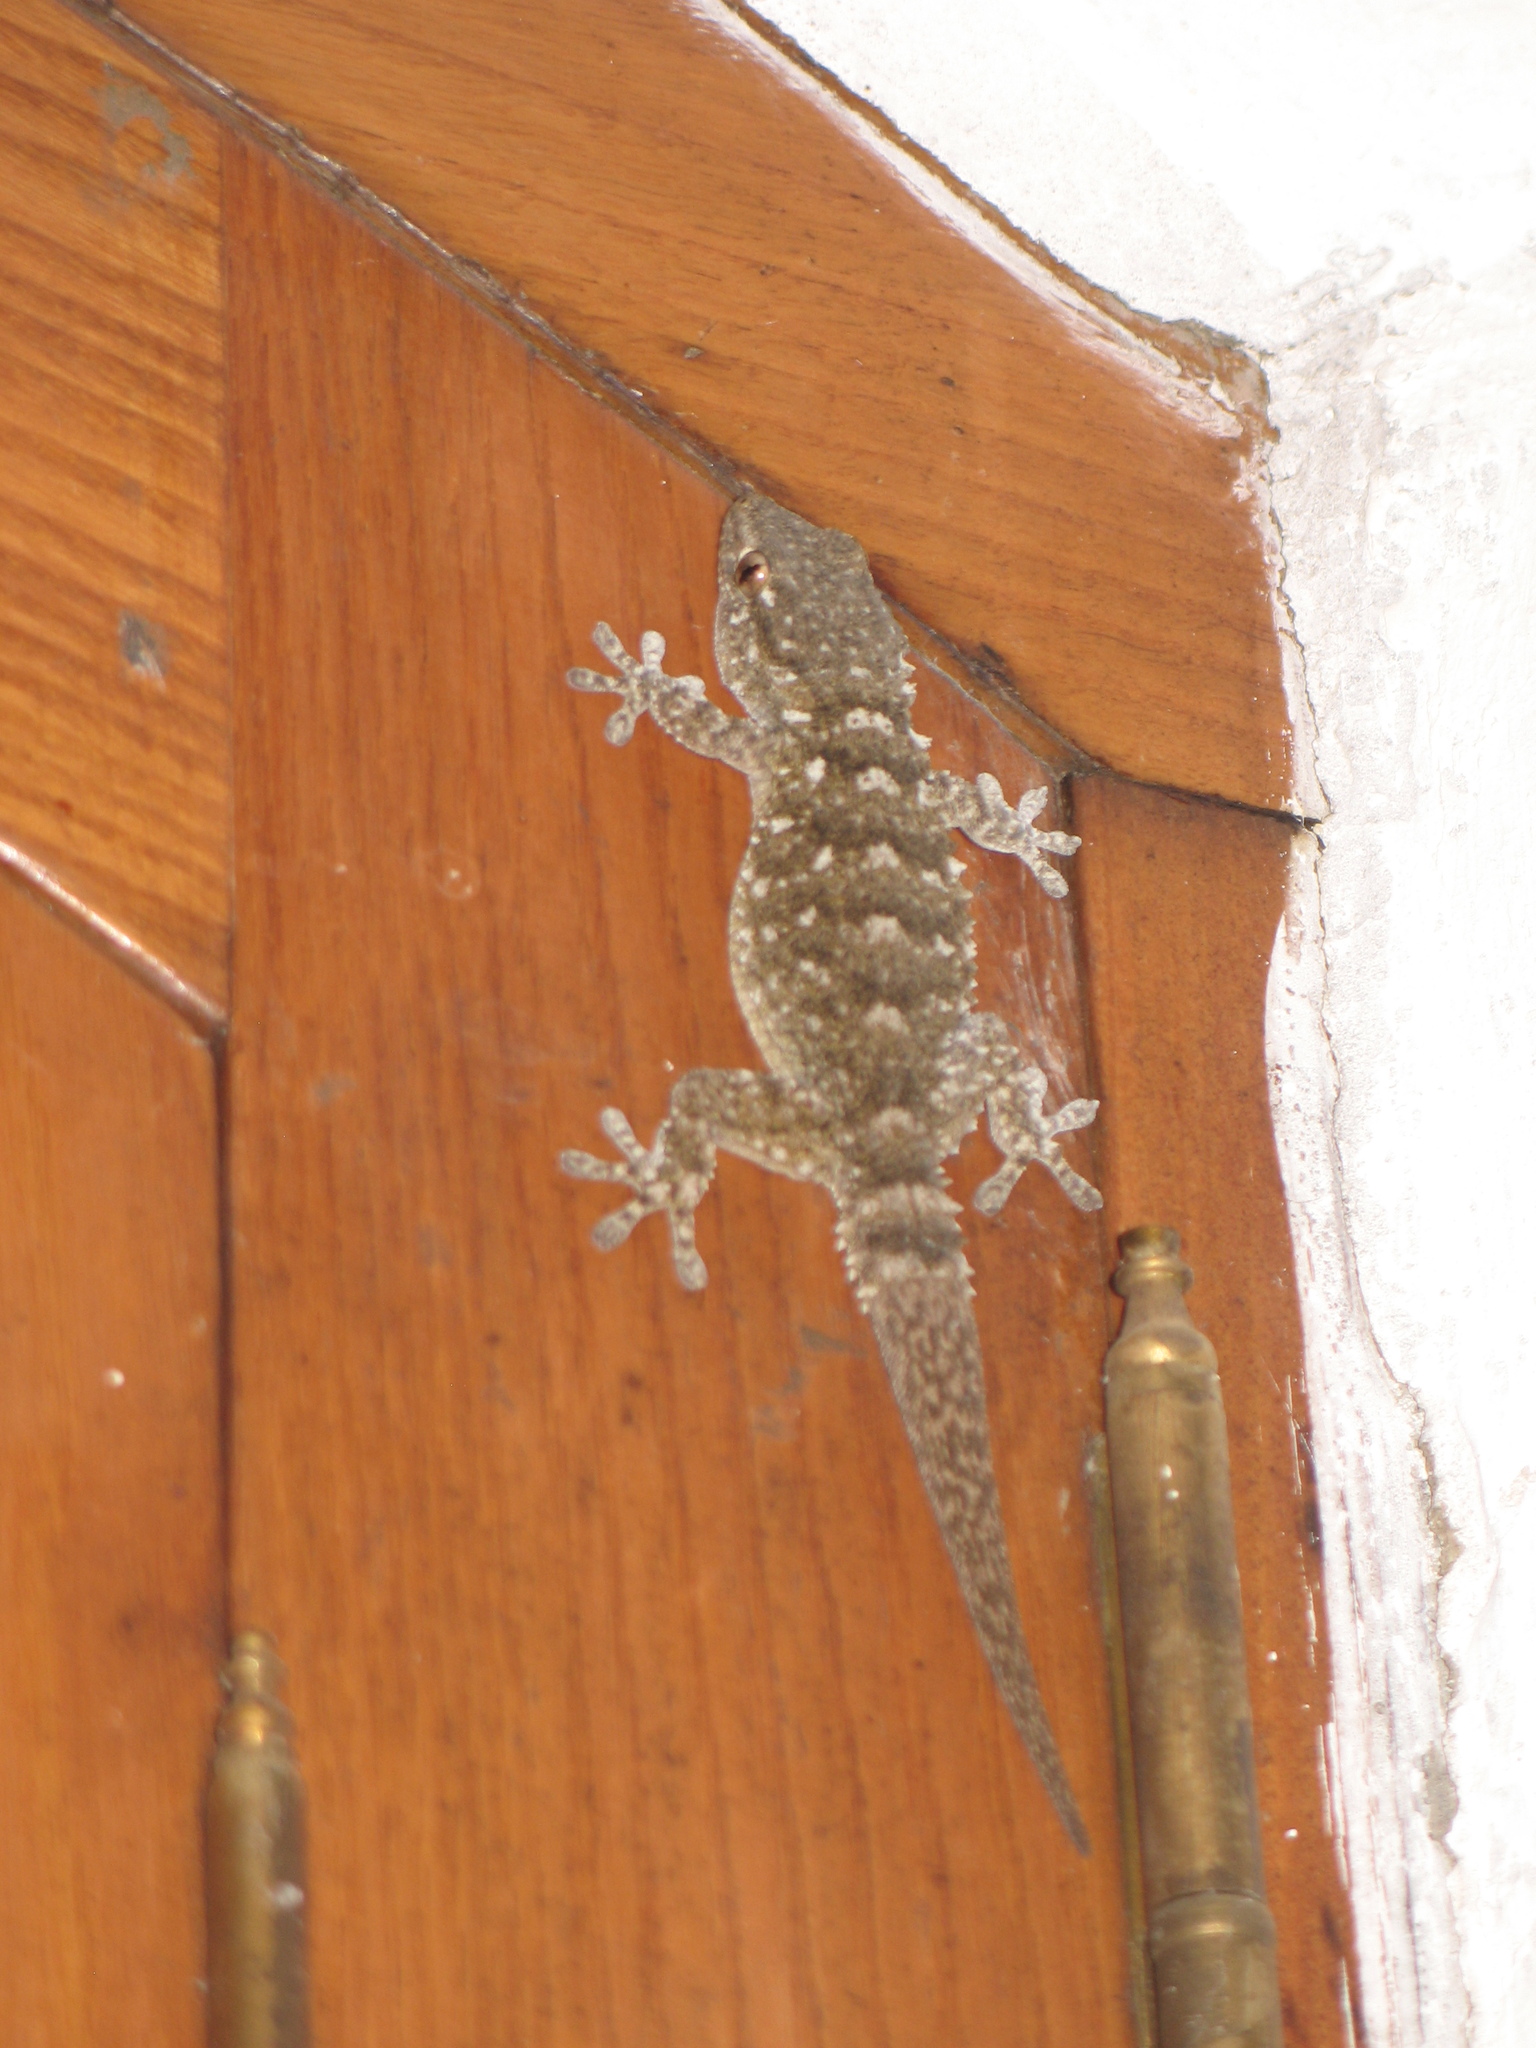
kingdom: Animalia
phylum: Chordata
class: Squamata
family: Phyllodactylidae
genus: Tarentola
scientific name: Tarentola mauritanica
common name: Moorish gecko
